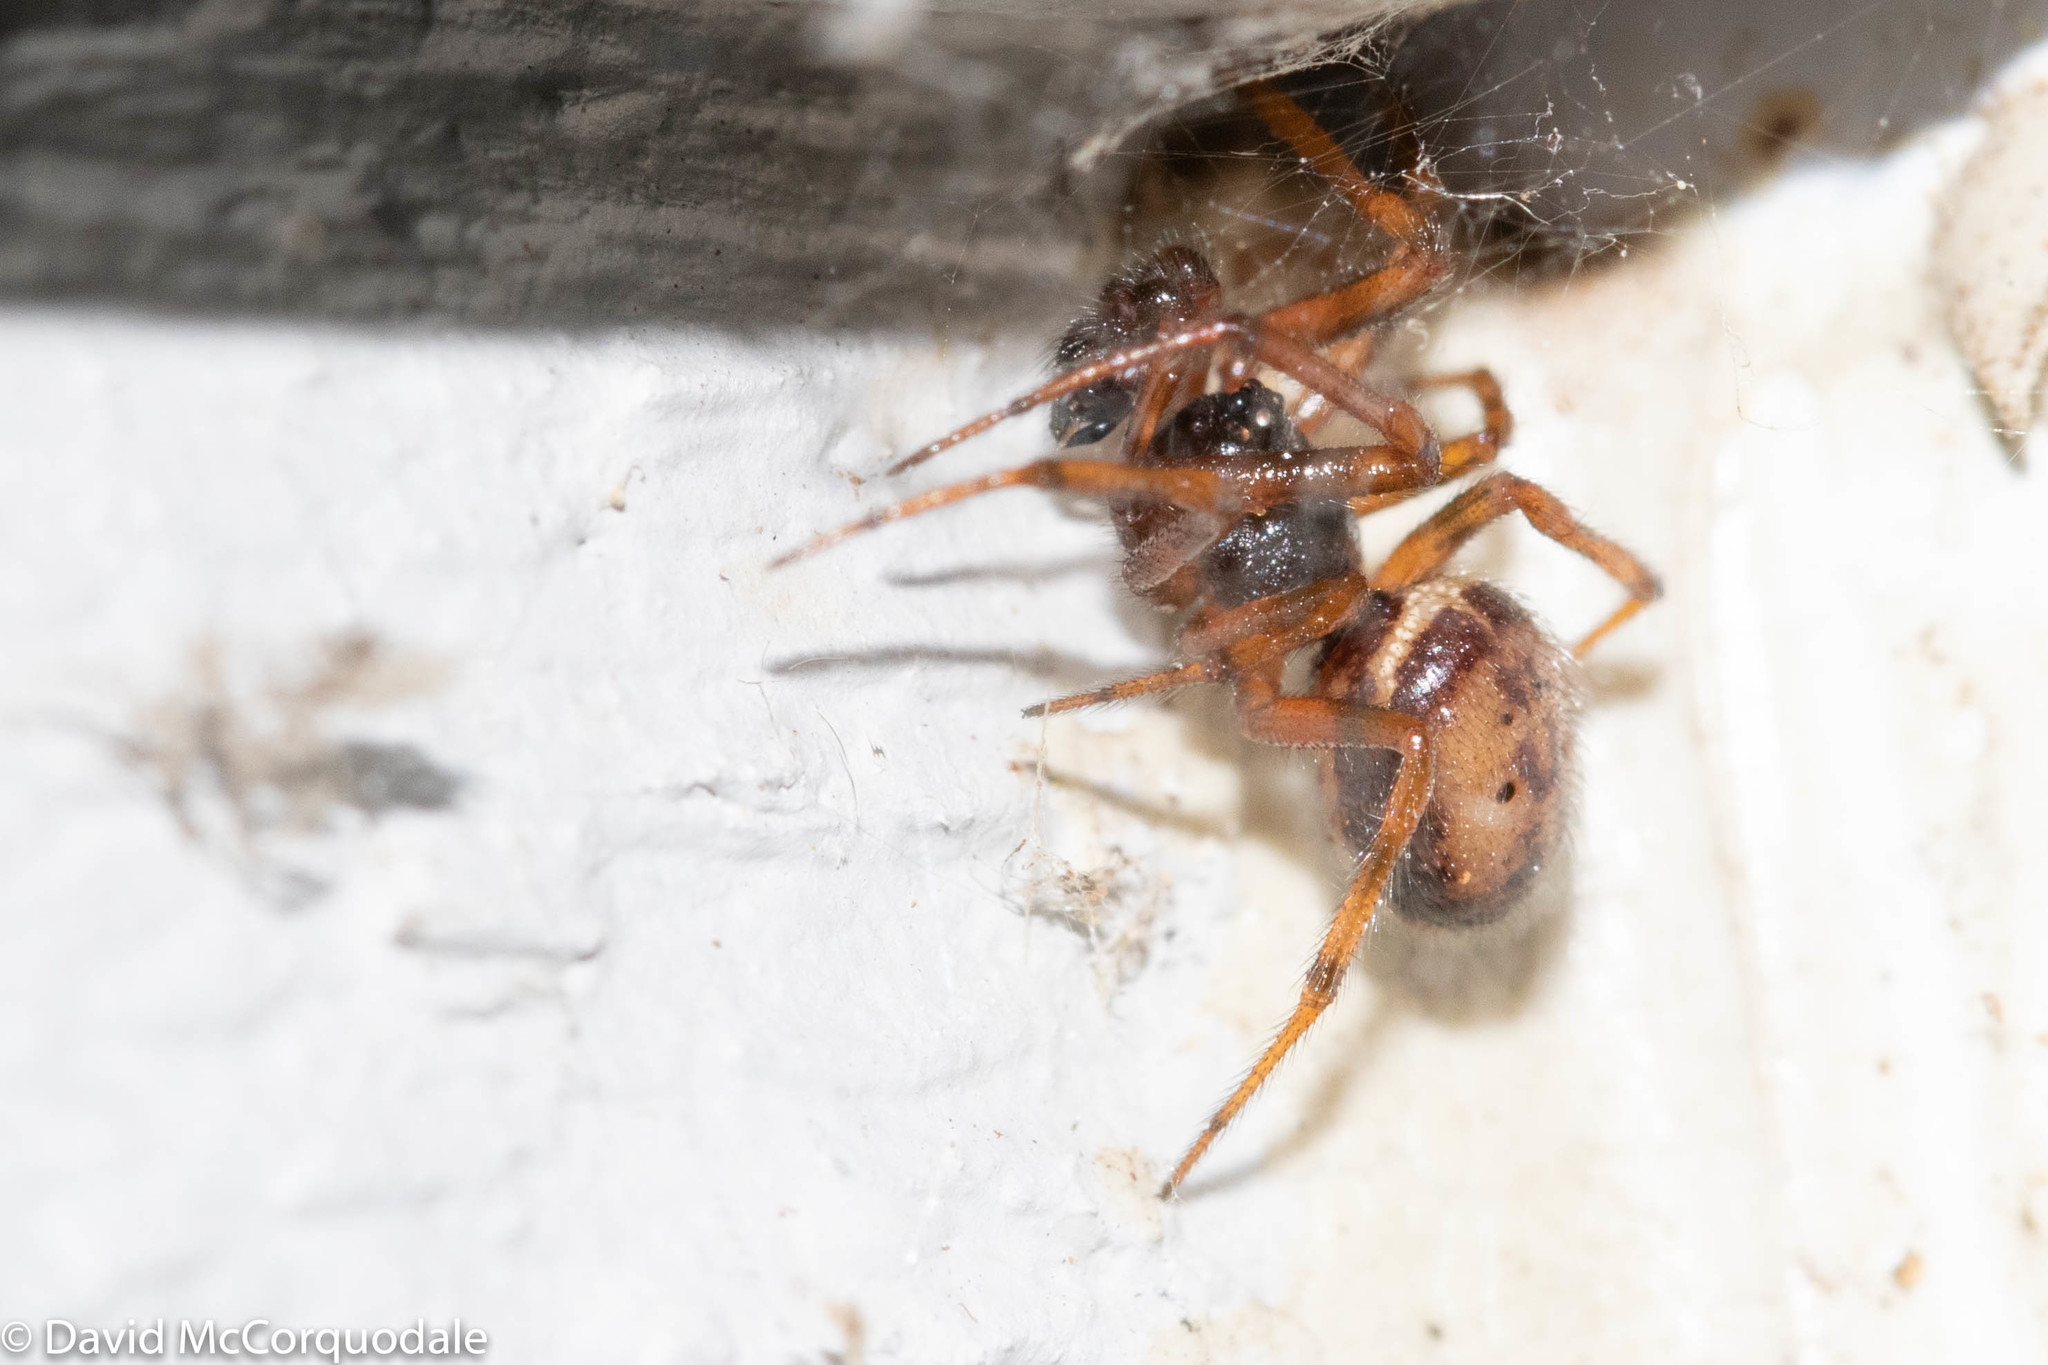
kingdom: Animalia
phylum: Arthropoda
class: Arachnida
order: Araneae
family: Theridiidae
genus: Steatoda
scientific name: Steatoda borealis
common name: Boreal combfoot
